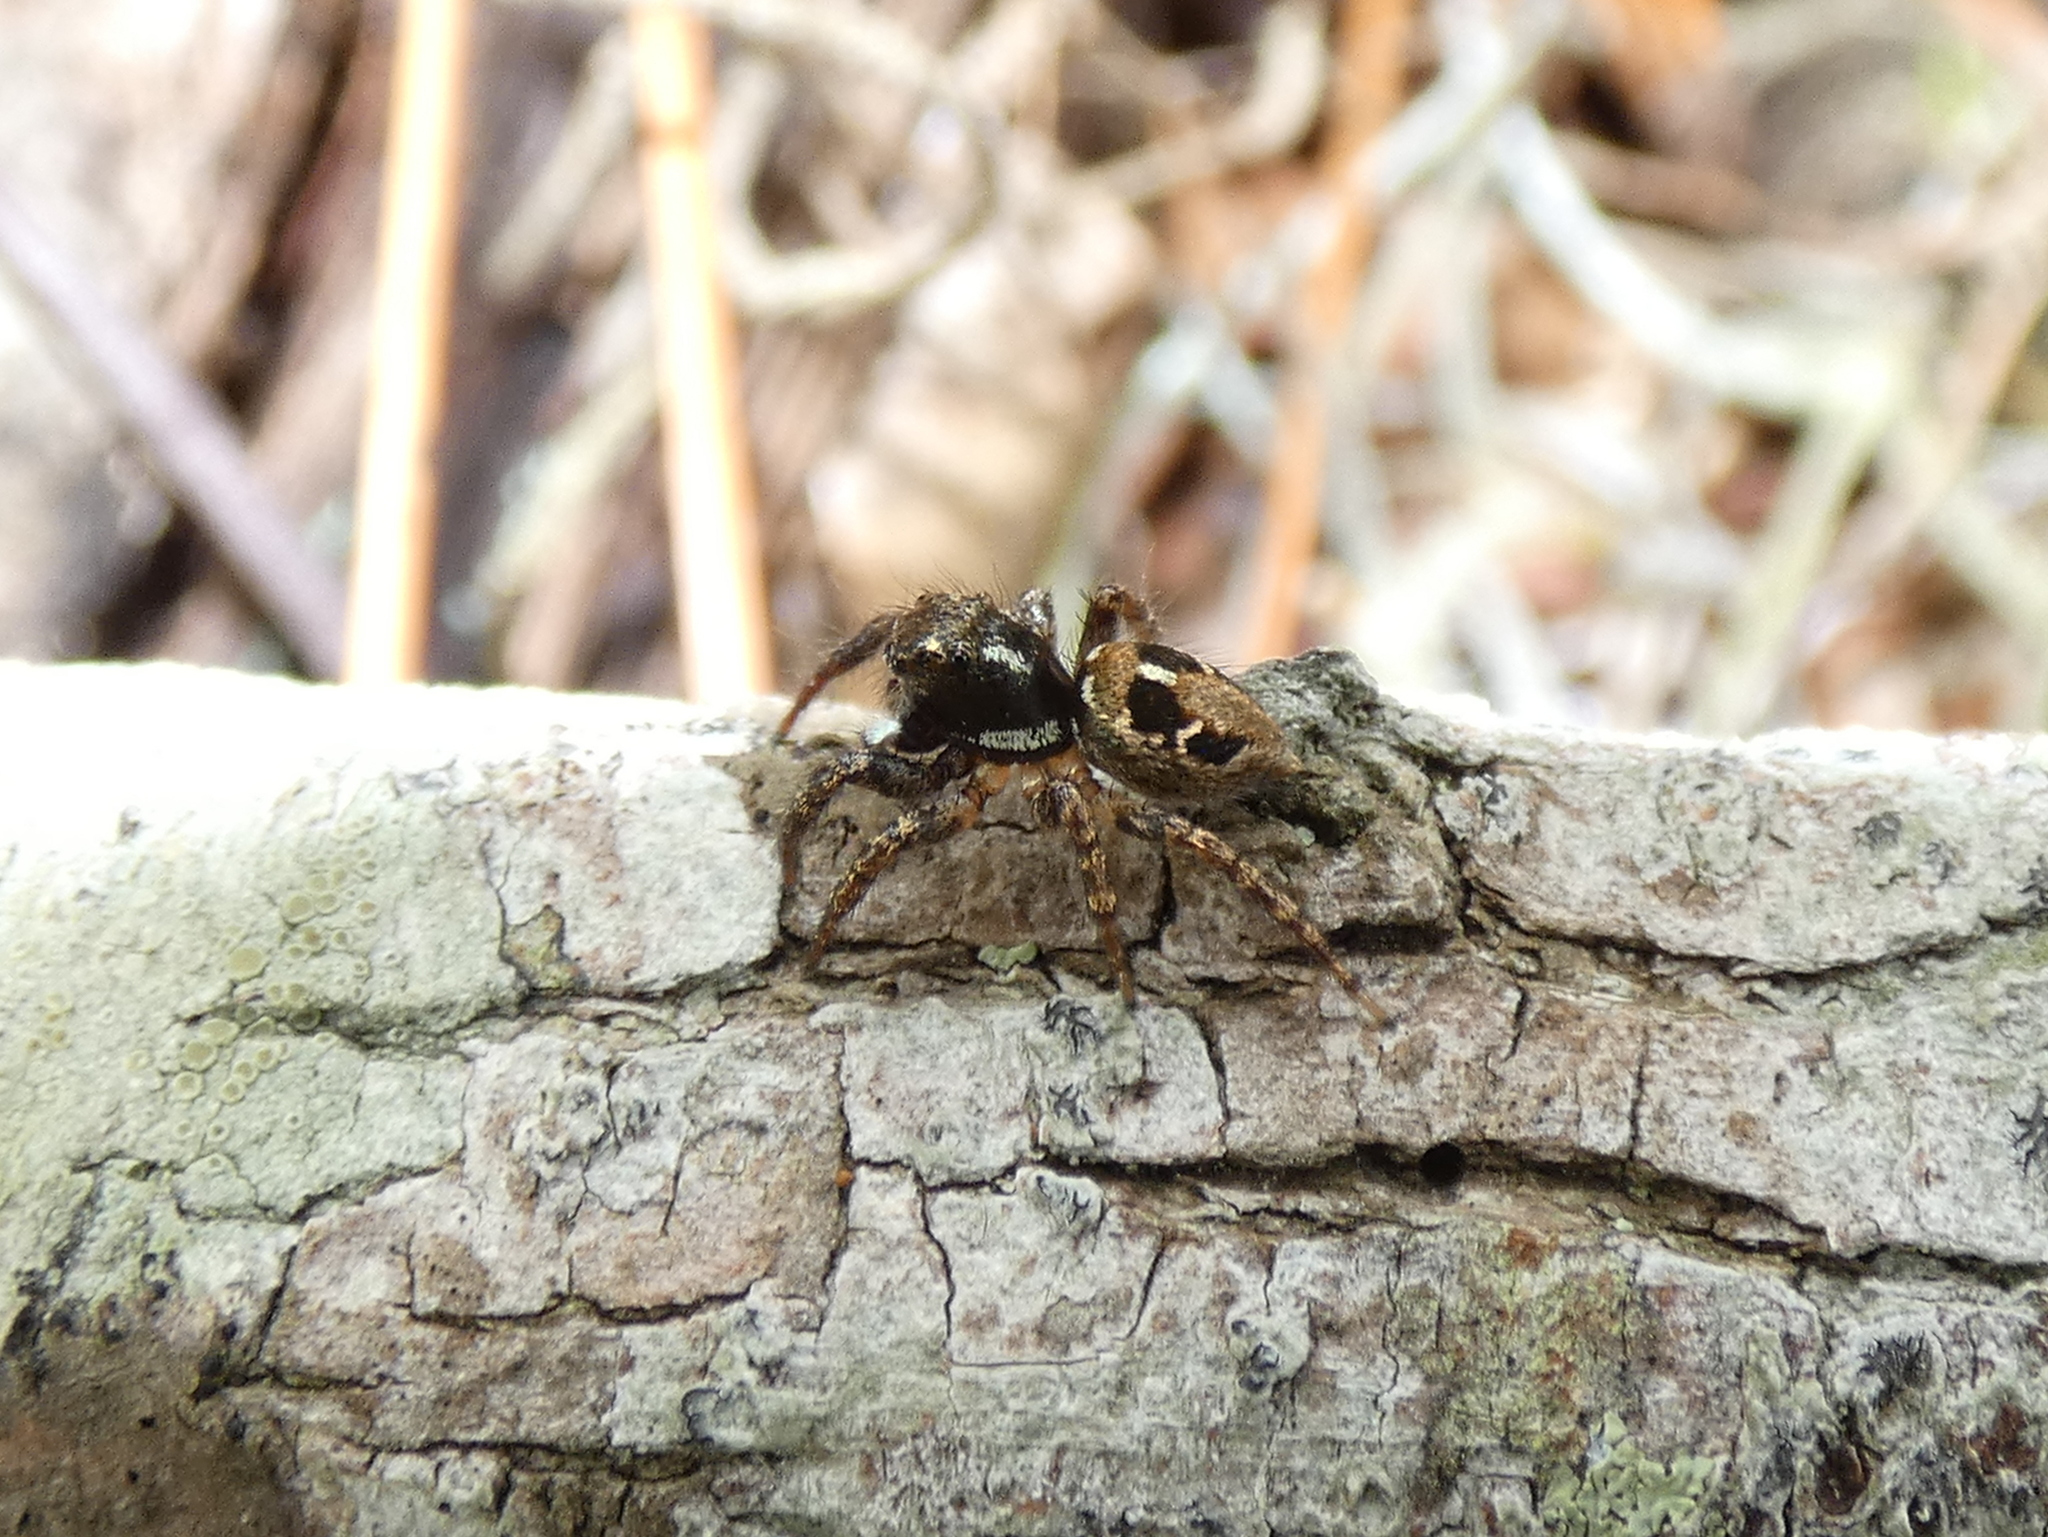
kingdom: Animalia
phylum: Arthropoda
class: Arachnida
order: Araneae
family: Salticidae
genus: Anasaitis
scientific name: Anasaitis canosa
